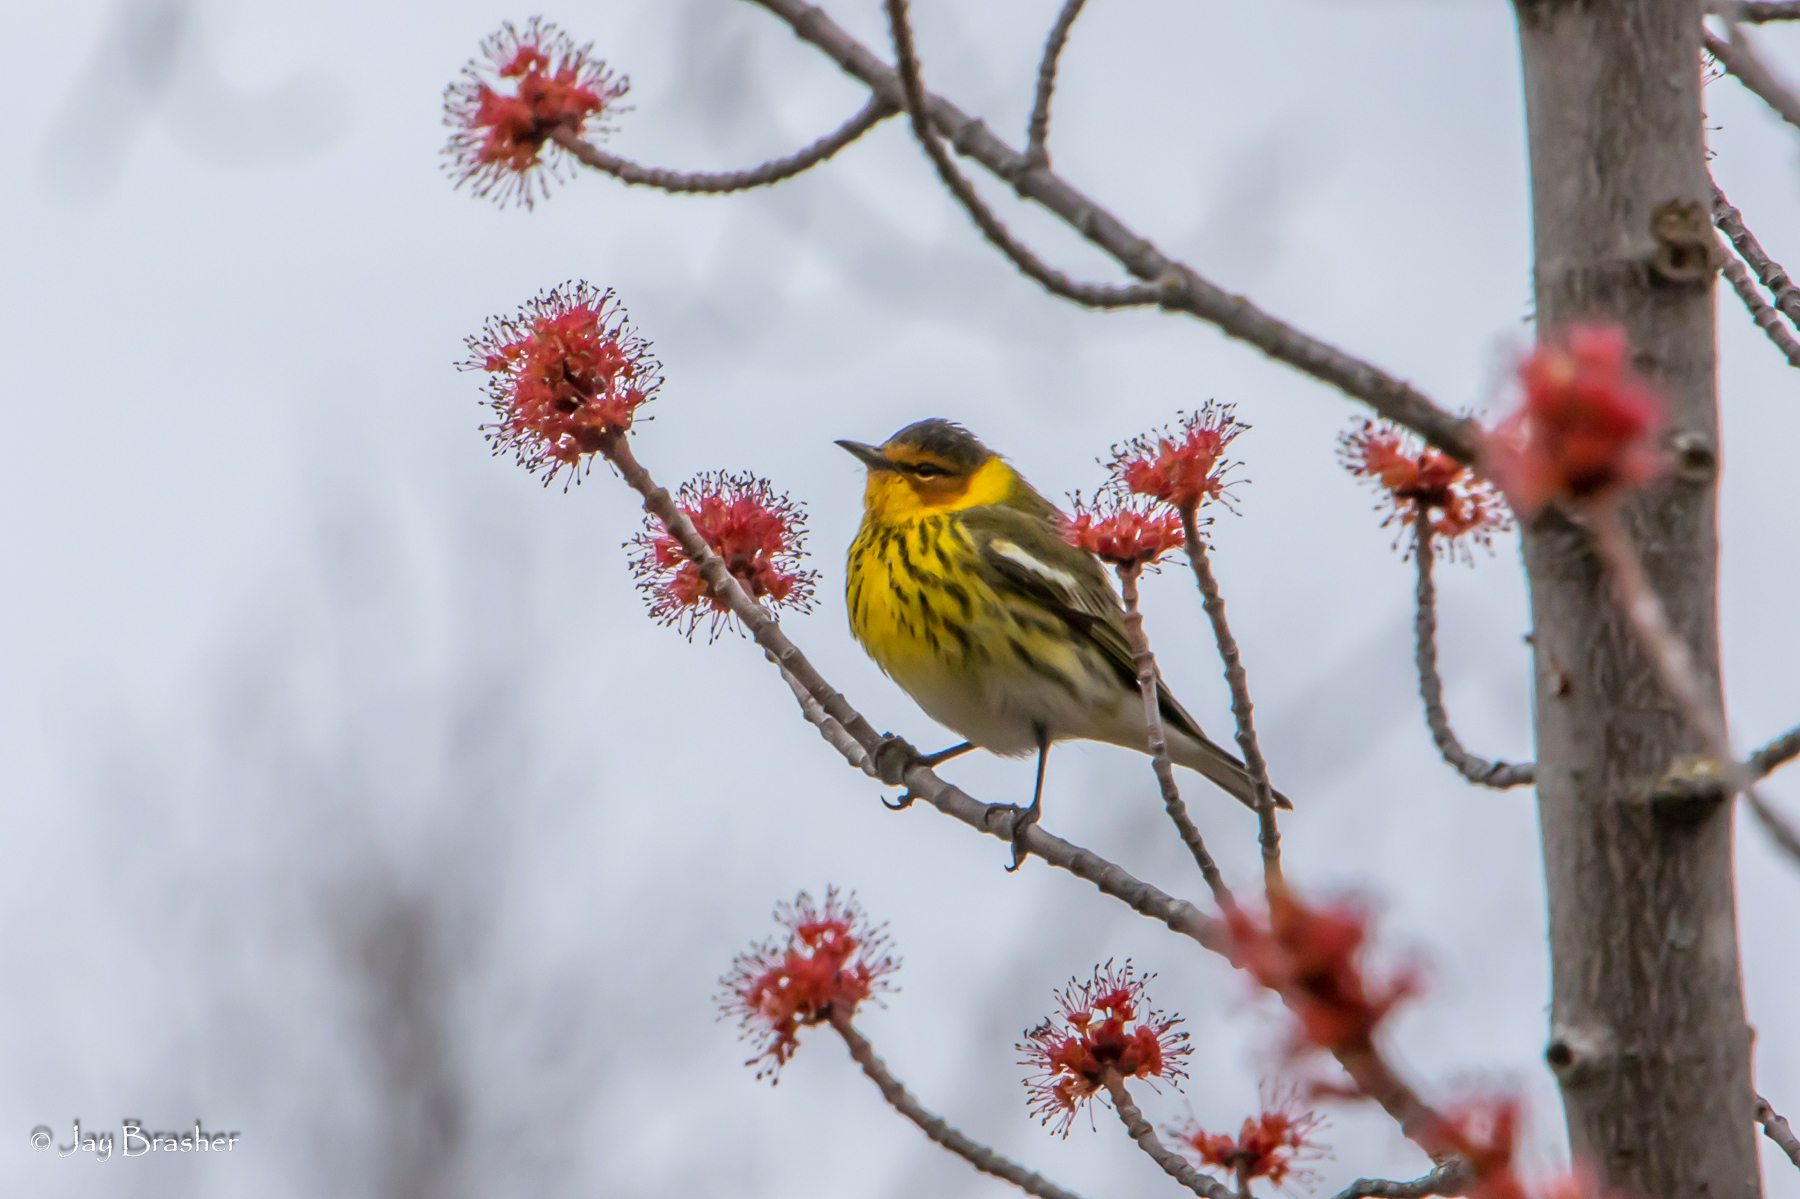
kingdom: Animalia
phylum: Chordata
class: Aves
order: Passeriformes
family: Parulidae
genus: Setophaga
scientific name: Setophaga tigrina
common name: Cape may warbler
